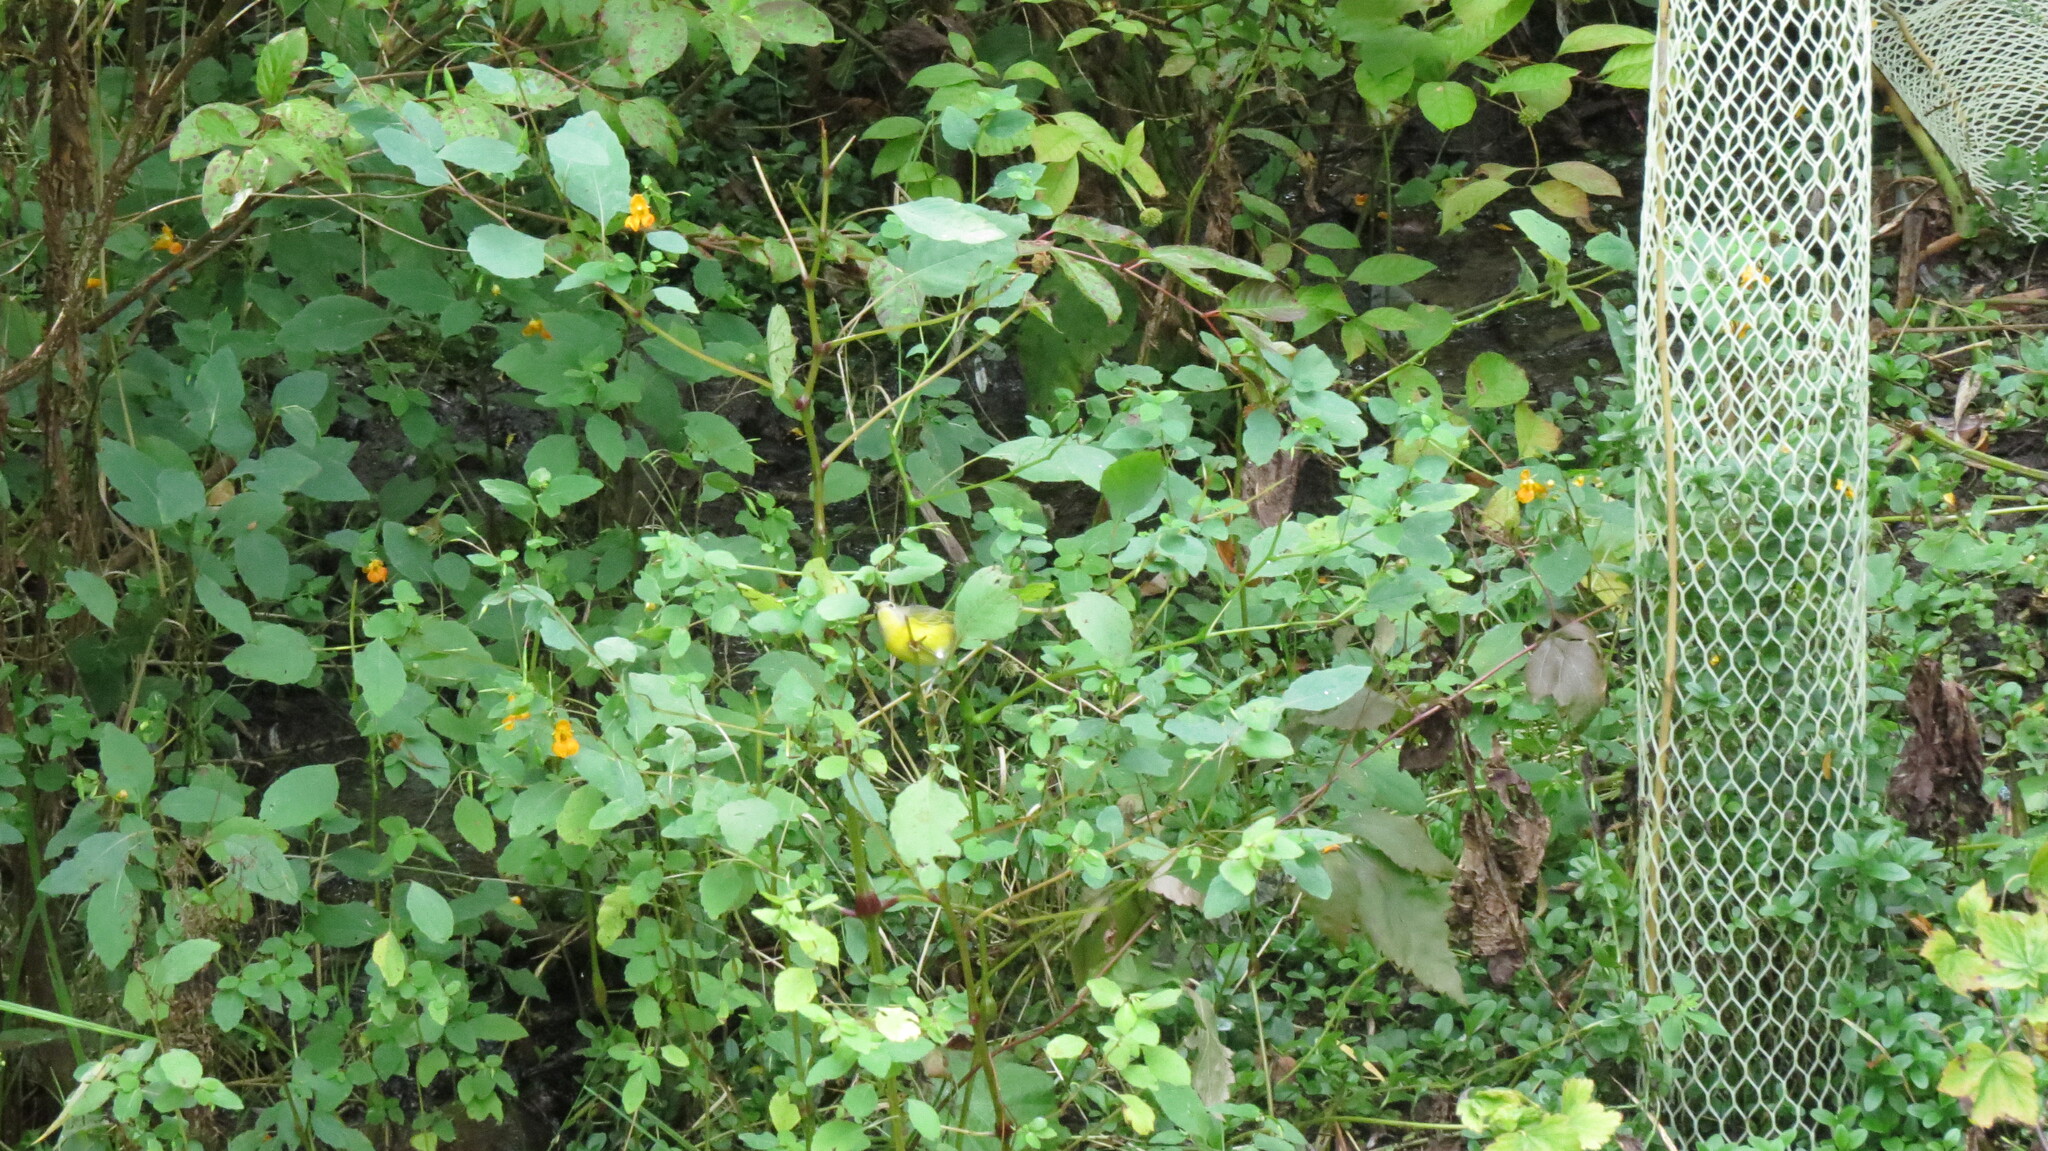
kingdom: Animalia
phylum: Chordata
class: Aves
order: Passeriformes
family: Parulidae
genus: Leiothlypis
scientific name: Leiothlypis ruficapilla
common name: Nashville warbler
